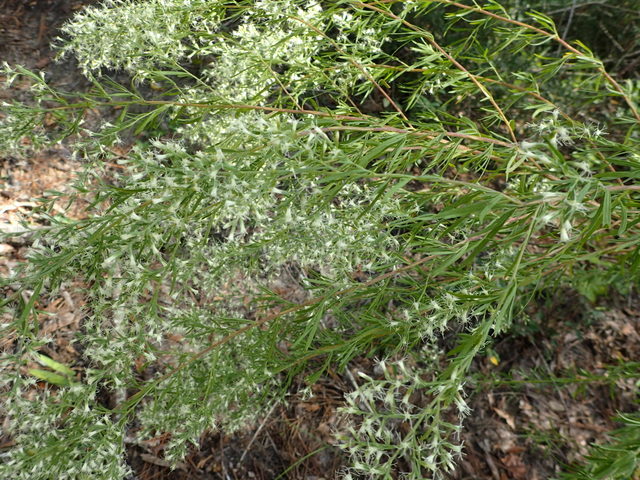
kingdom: Plantae
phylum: Tracheophyta
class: Magnoliopsida
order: Asterales
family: Asteraceae
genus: Eupatorium
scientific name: Eupatorium compositifolium
